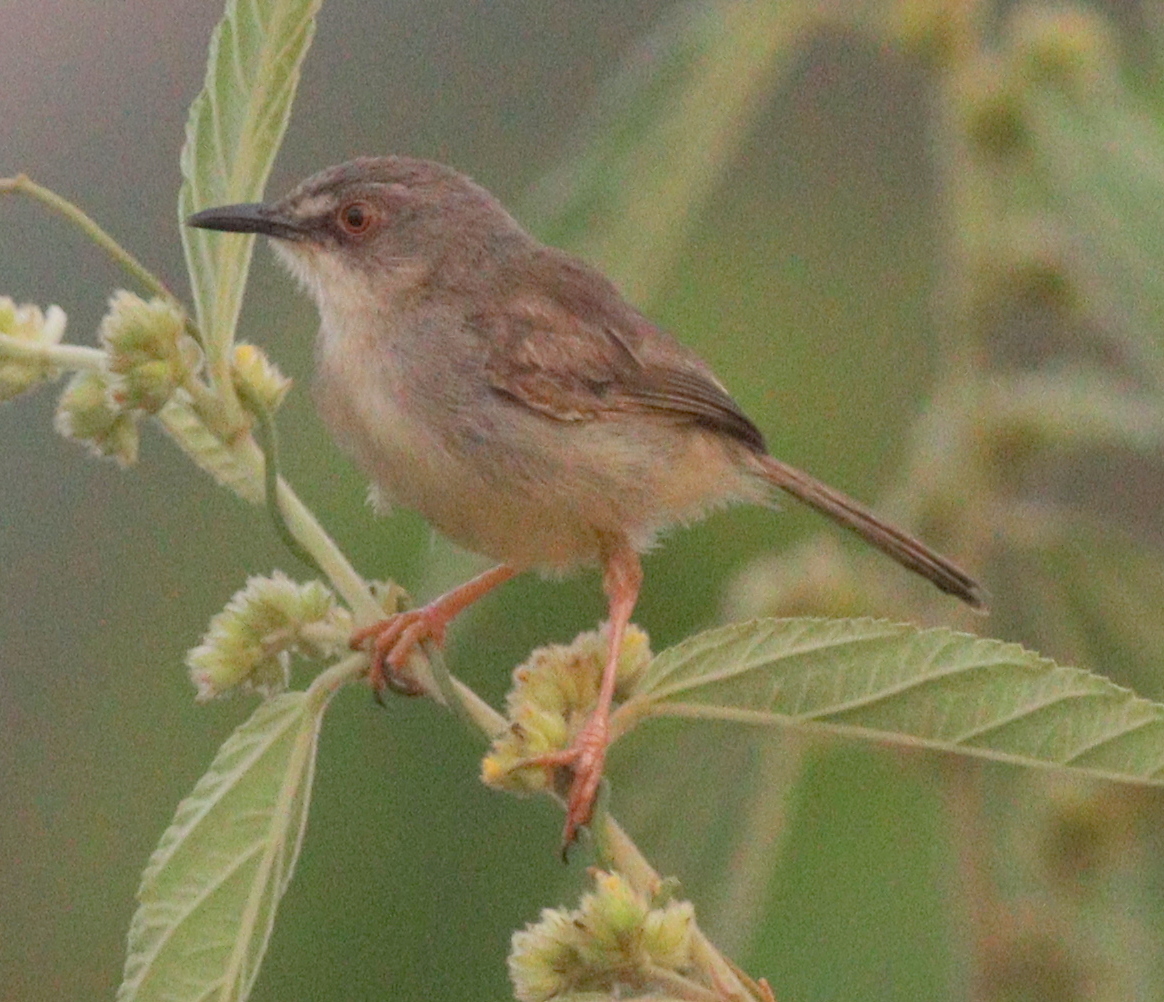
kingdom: Animalia
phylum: Chordata
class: Aves
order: Passeriformes
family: Cisticolidae
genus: Prinia
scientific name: Prinia subflava
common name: Tawny-flanked prinia
